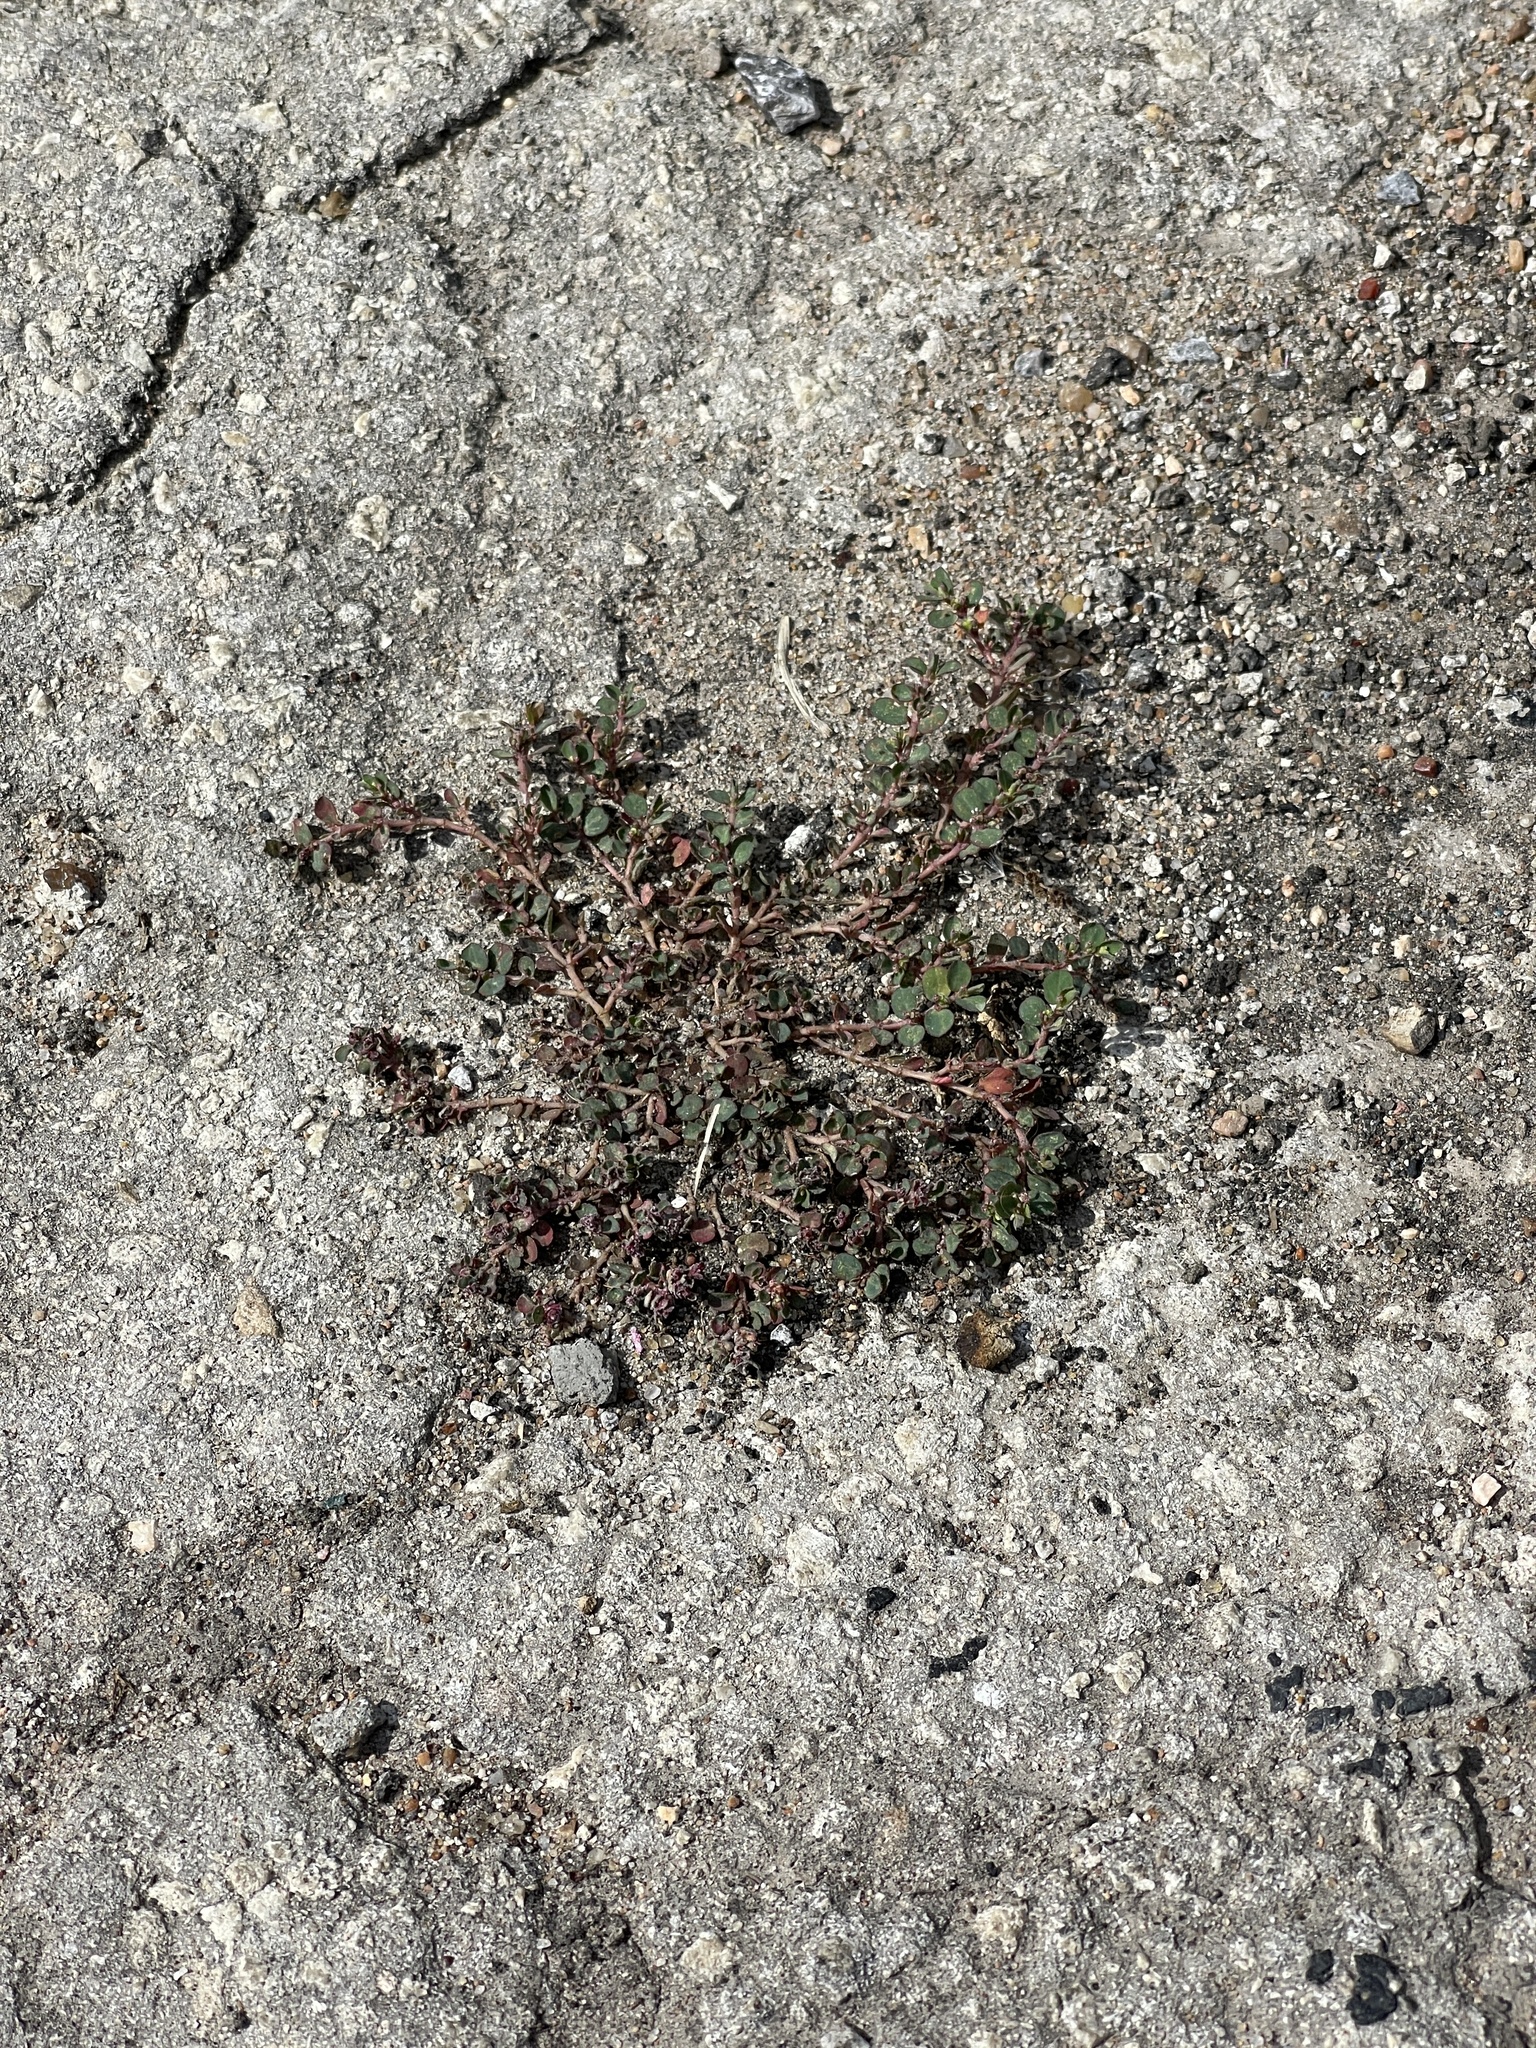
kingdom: Plantae
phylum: Tracheophyta
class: Magnoliopsida
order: Malpighiales
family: Euphorbiaceae
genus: Euphorbia
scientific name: Euphorbia prostrata
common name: Prostrate sandmat
